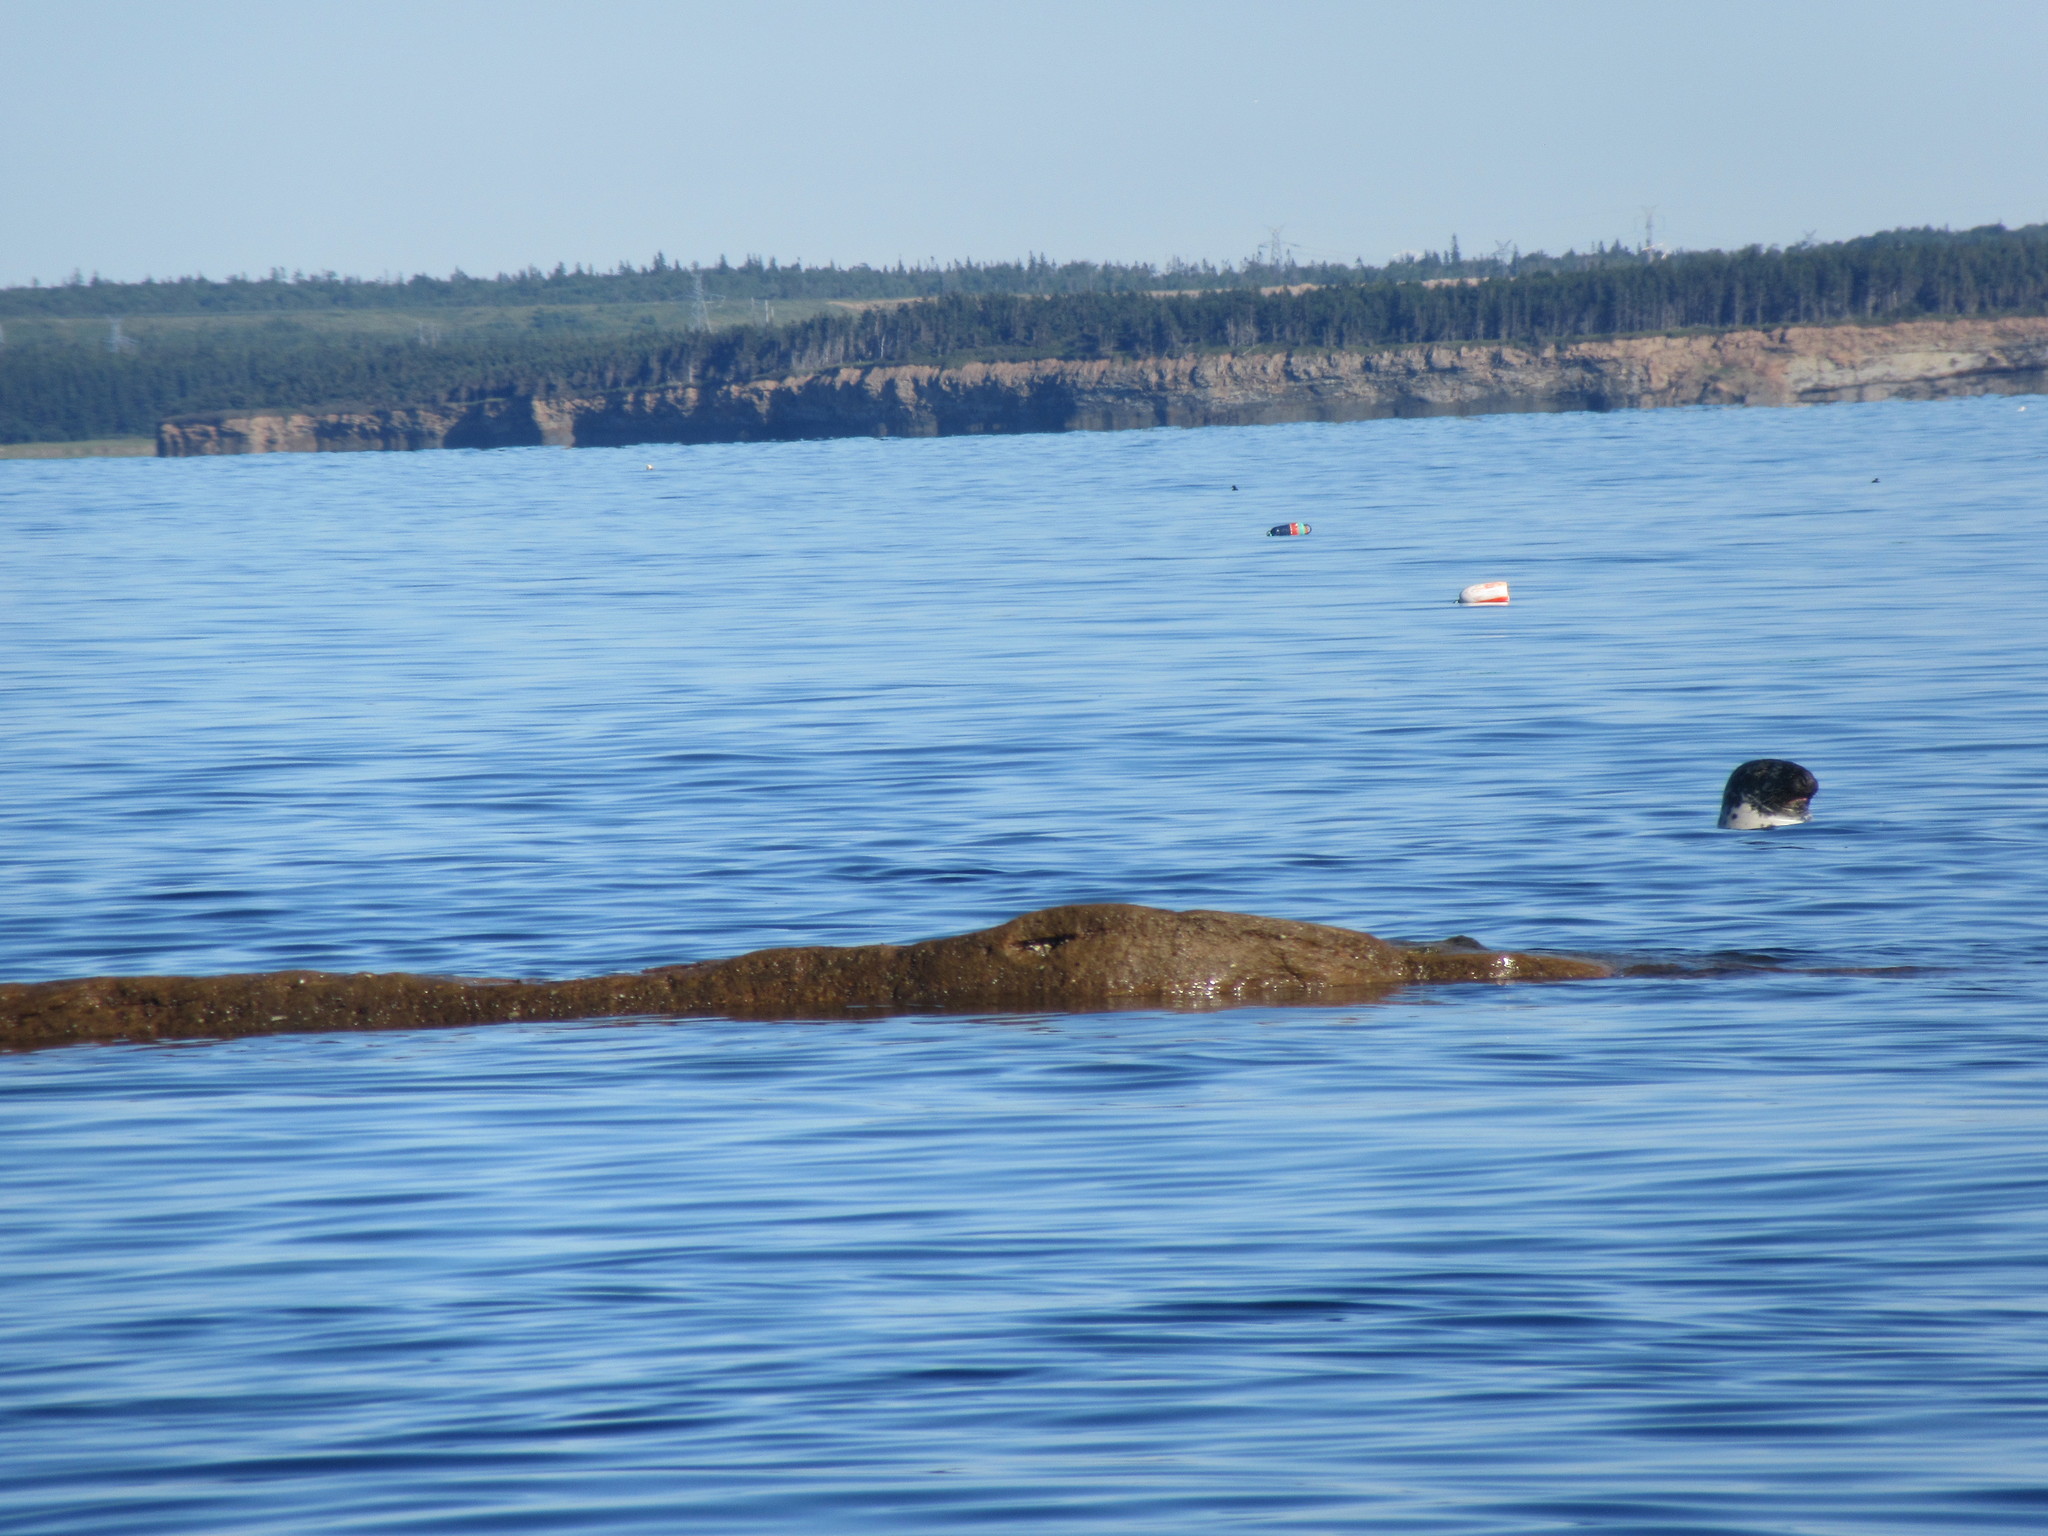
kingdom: Animalia
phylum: Chordata
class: Mammalia
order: Carnivora
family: Phocidae
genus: Halichoerus
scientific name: Halichoerus grypus
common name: Grey seal
